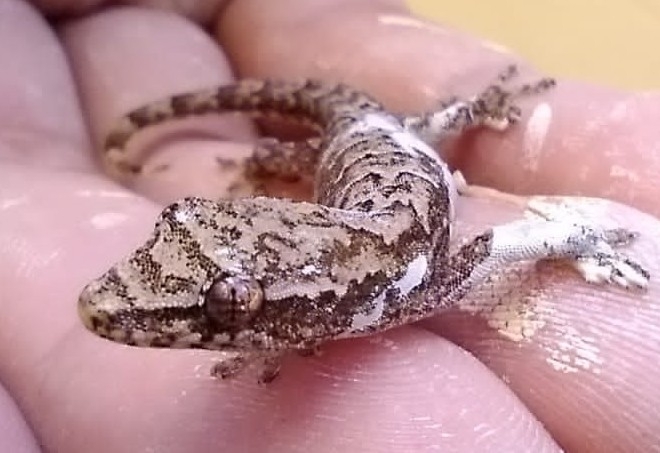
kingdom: Animalia
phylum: Chordata
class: Squamata
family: Gekkonidae
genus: Lepidodactylus
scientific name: Lepidodactylus lugubris
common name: Mourning gecko
